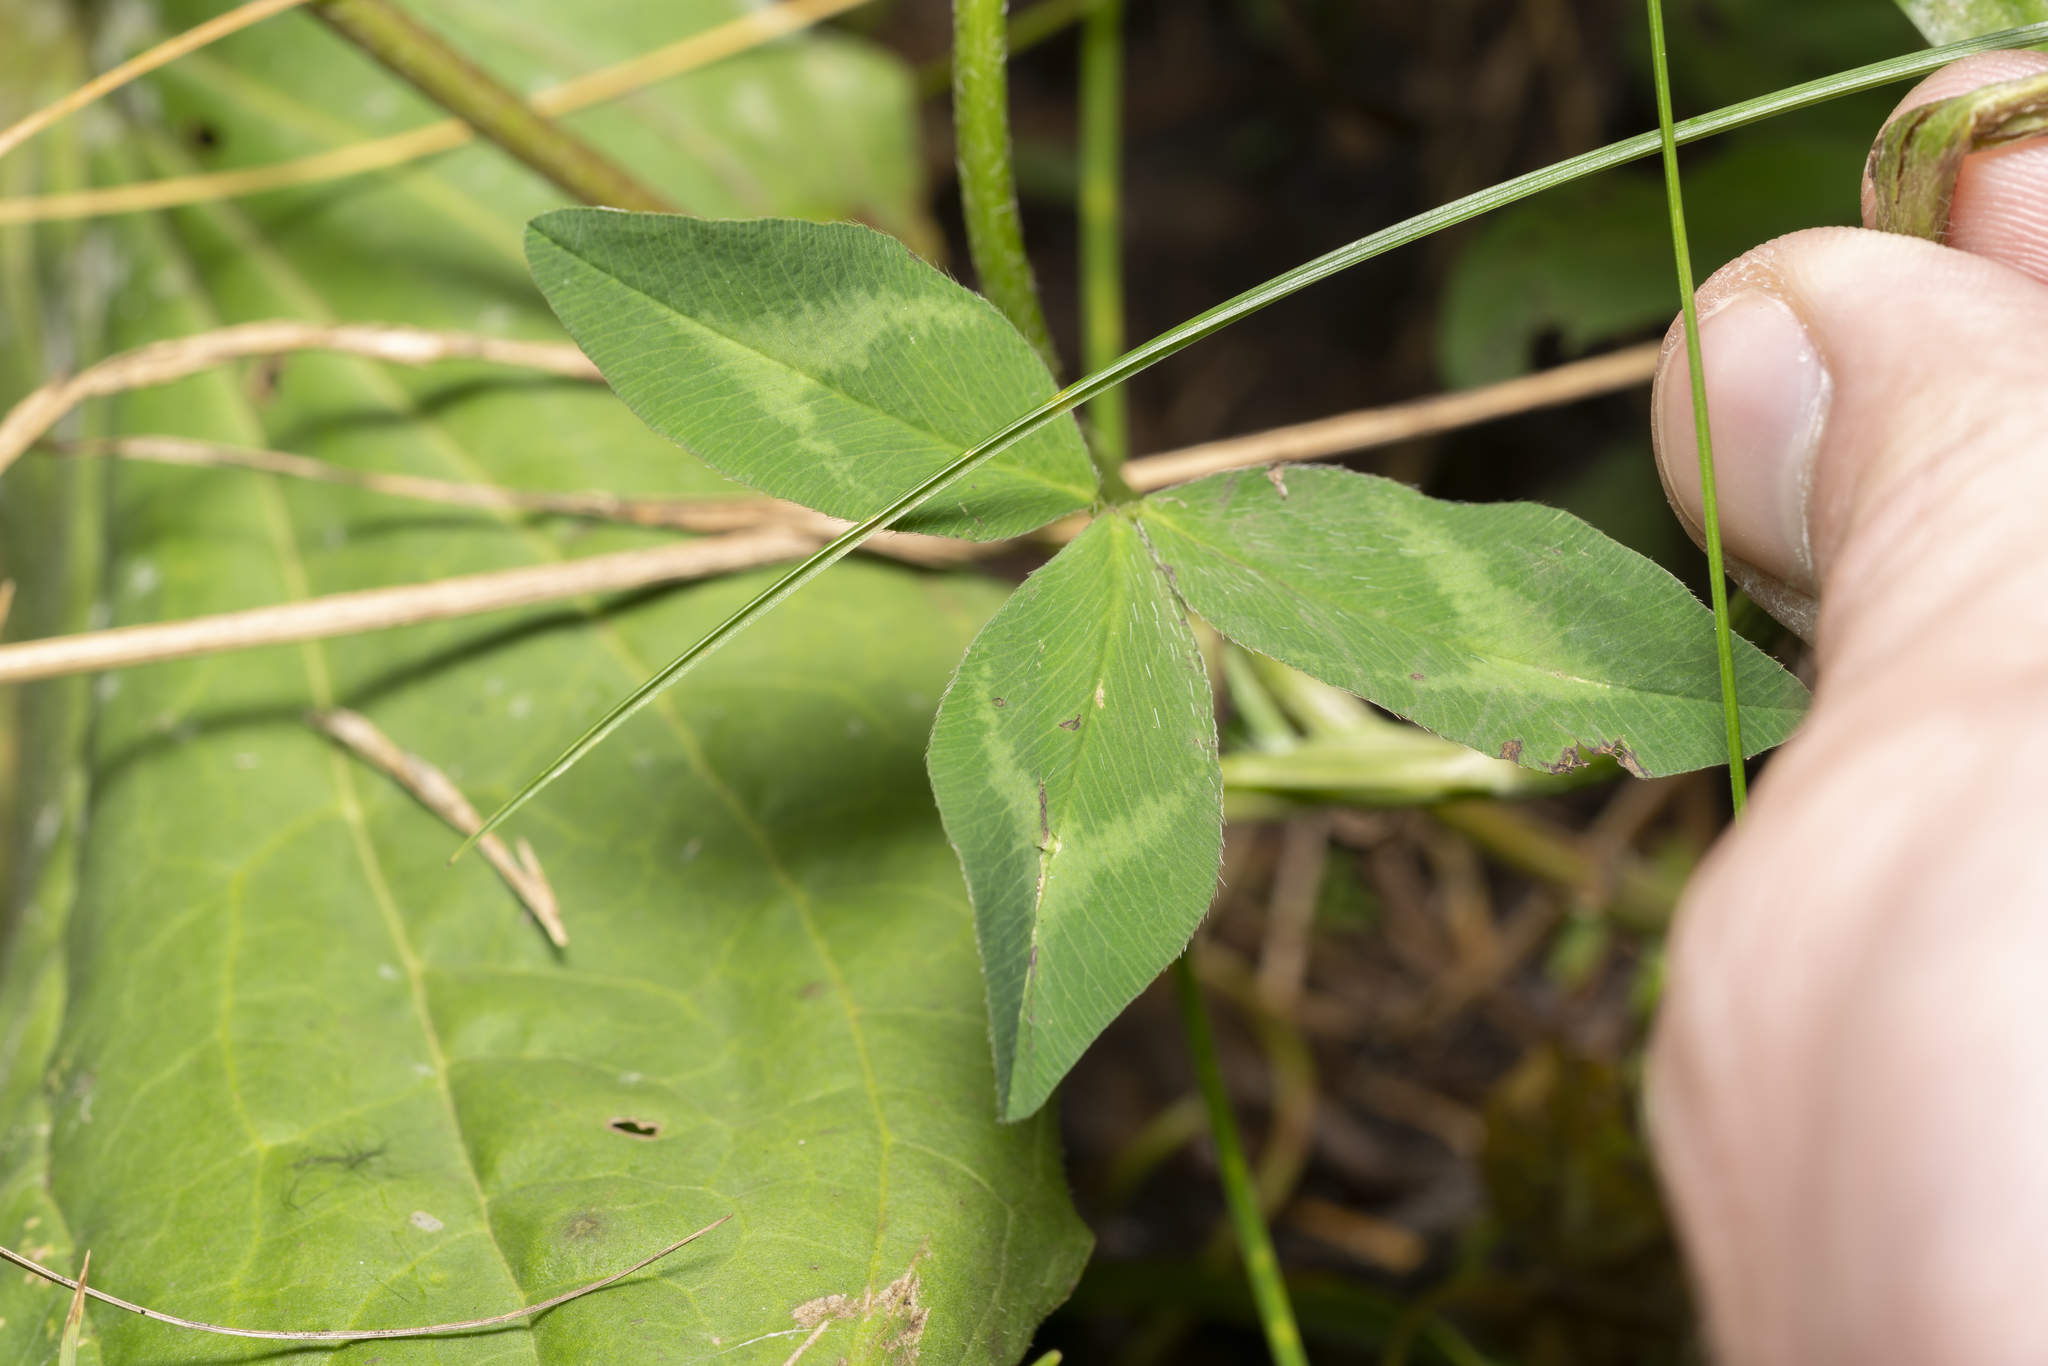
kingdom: Plantae
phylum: Tracheophyta
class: Magnoliopsida
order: Fabales
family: Fabaceae
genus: Trifolium
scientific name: Trifolium pratense
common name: Red clover
